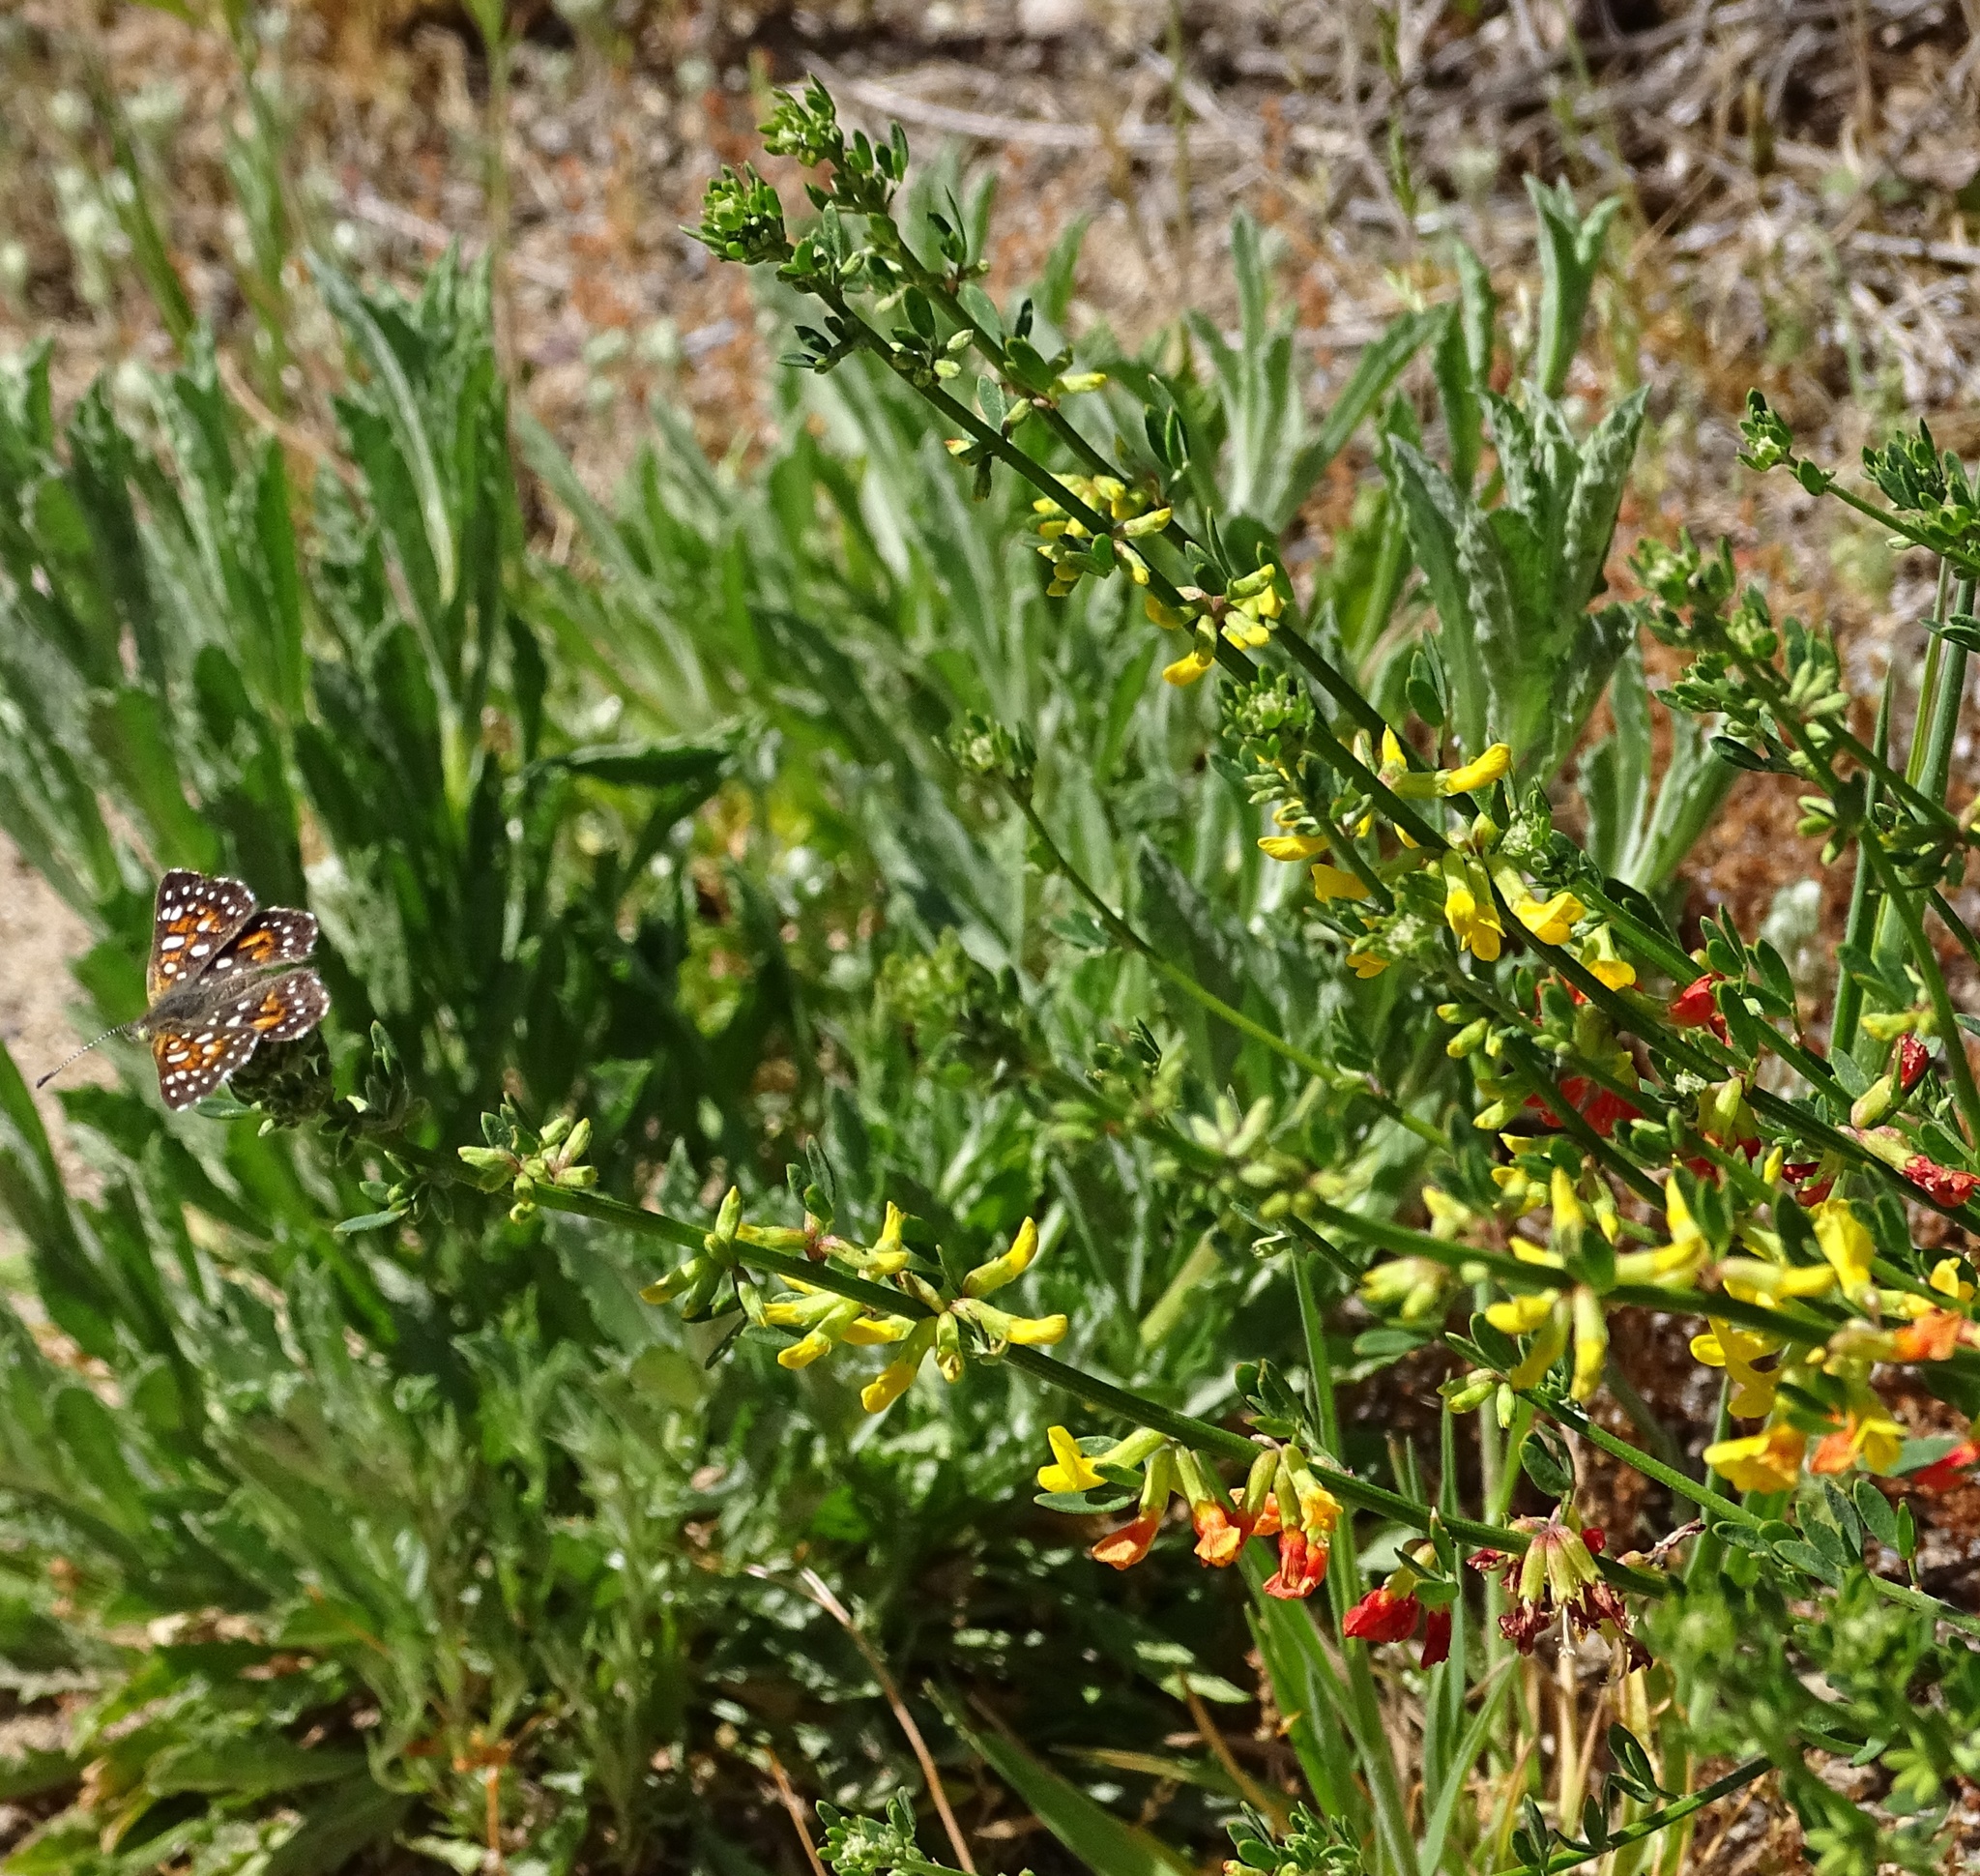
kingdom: Animalia
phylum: Arthropoda
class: Insecta
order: Lepidoptera
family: Riodinidae
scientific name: Riodinidae
